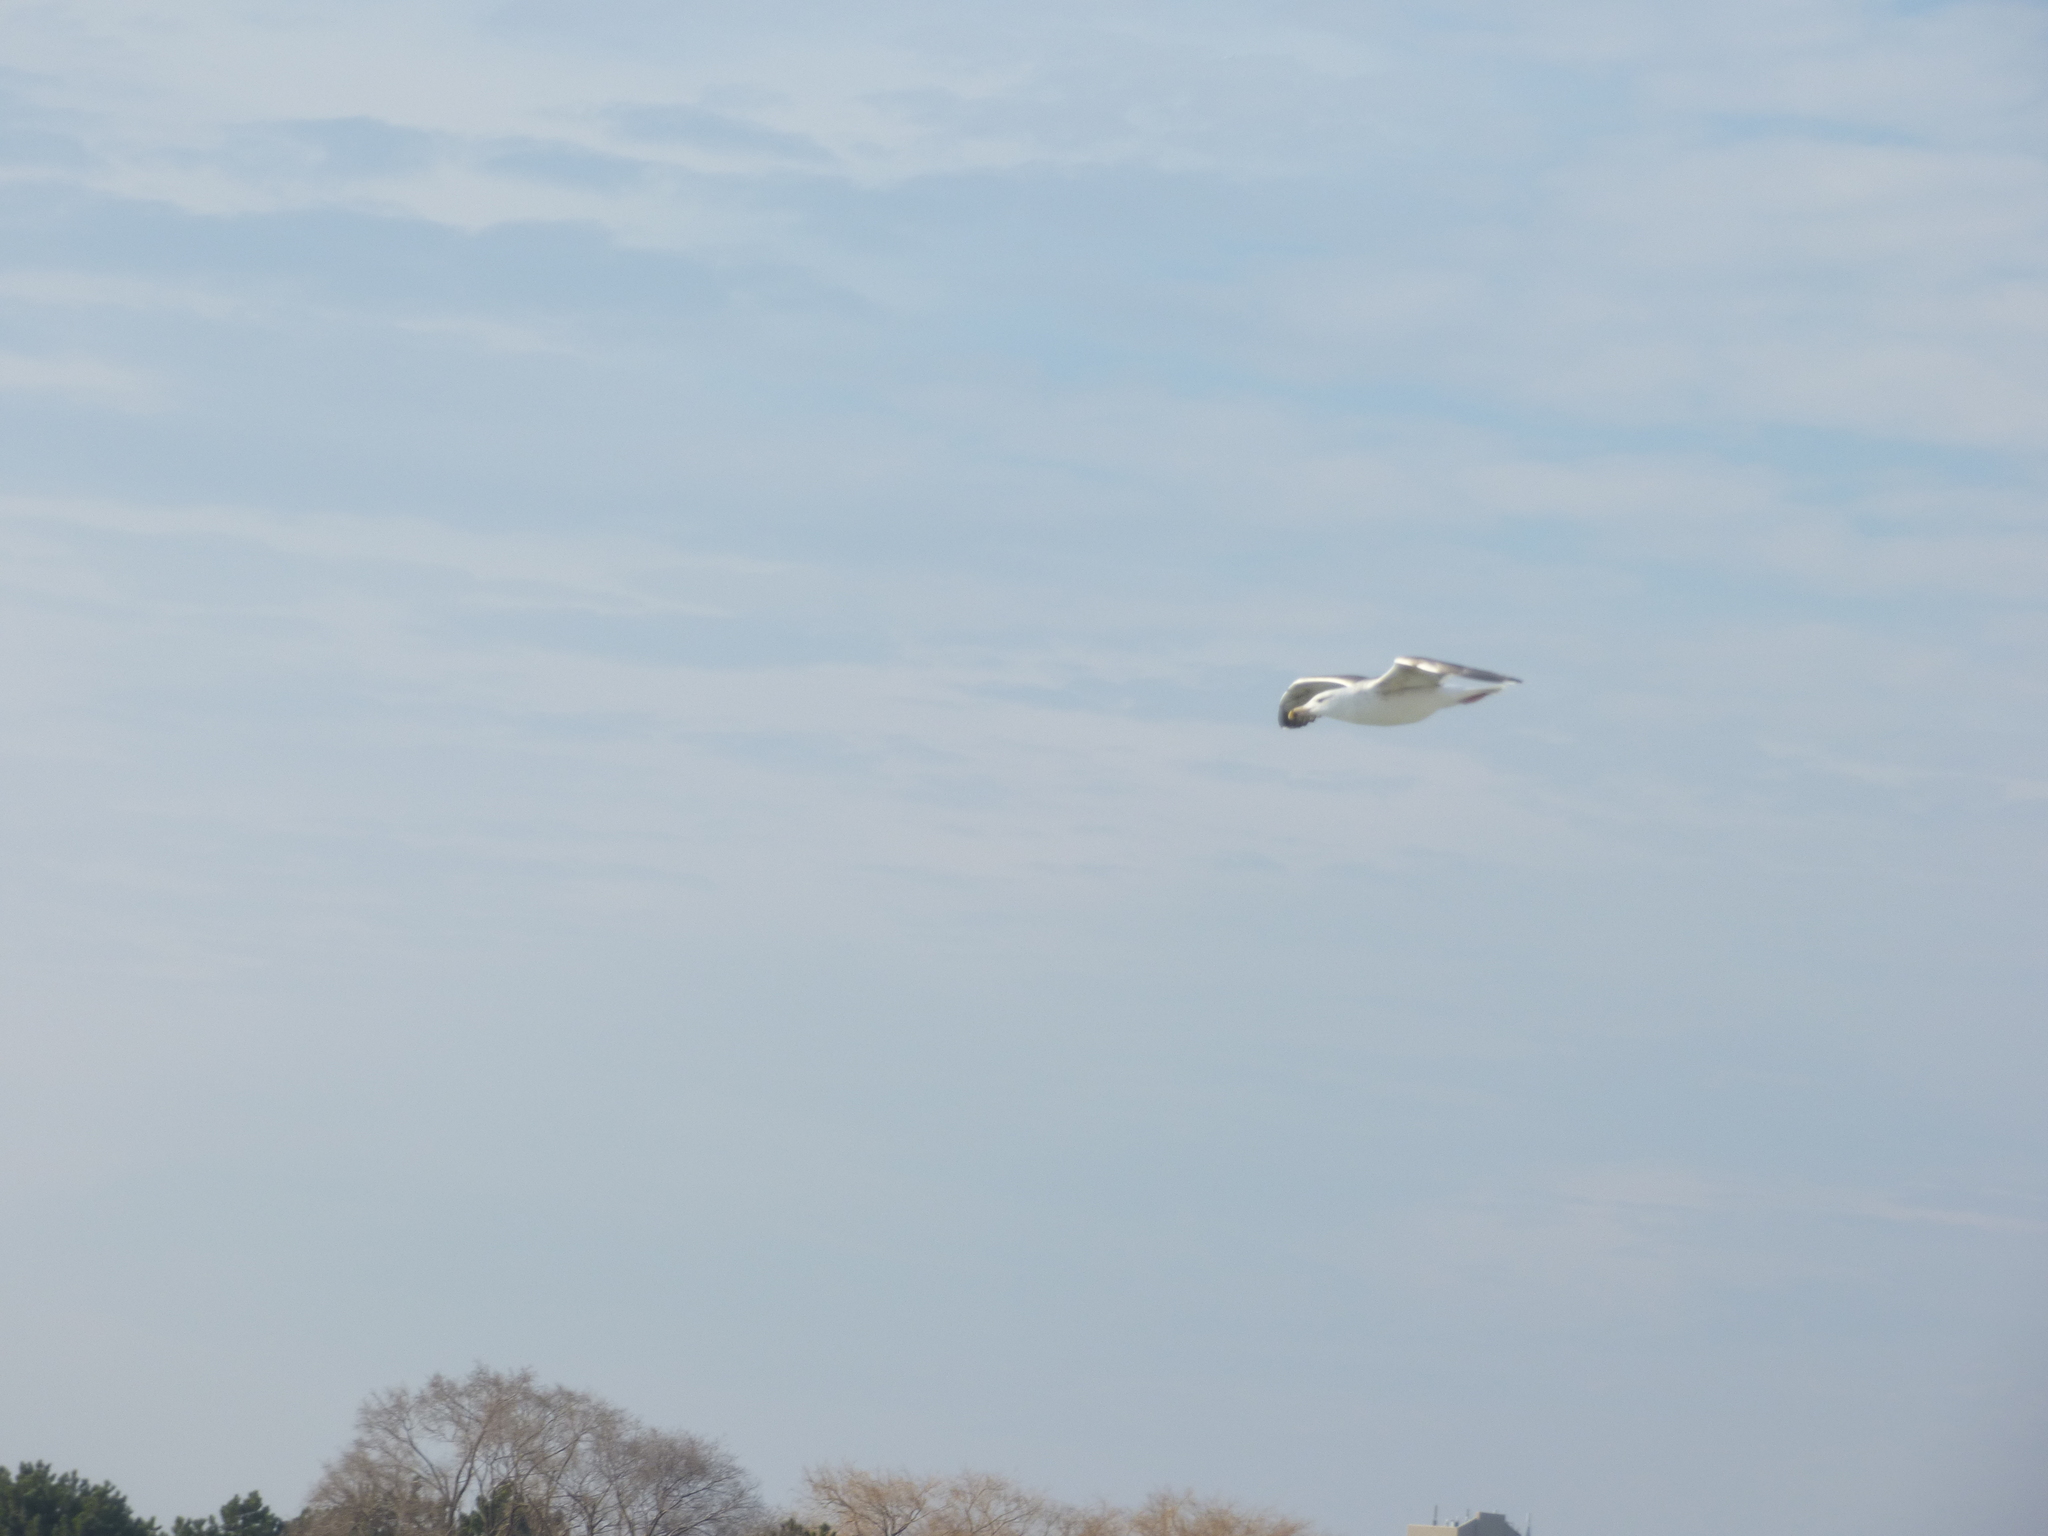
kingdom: Animalia
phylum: Chordata
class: Aves
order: Charadriiformes
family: Laridae
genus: Larus
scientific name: Larus marinus
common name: Great black-backed gull
